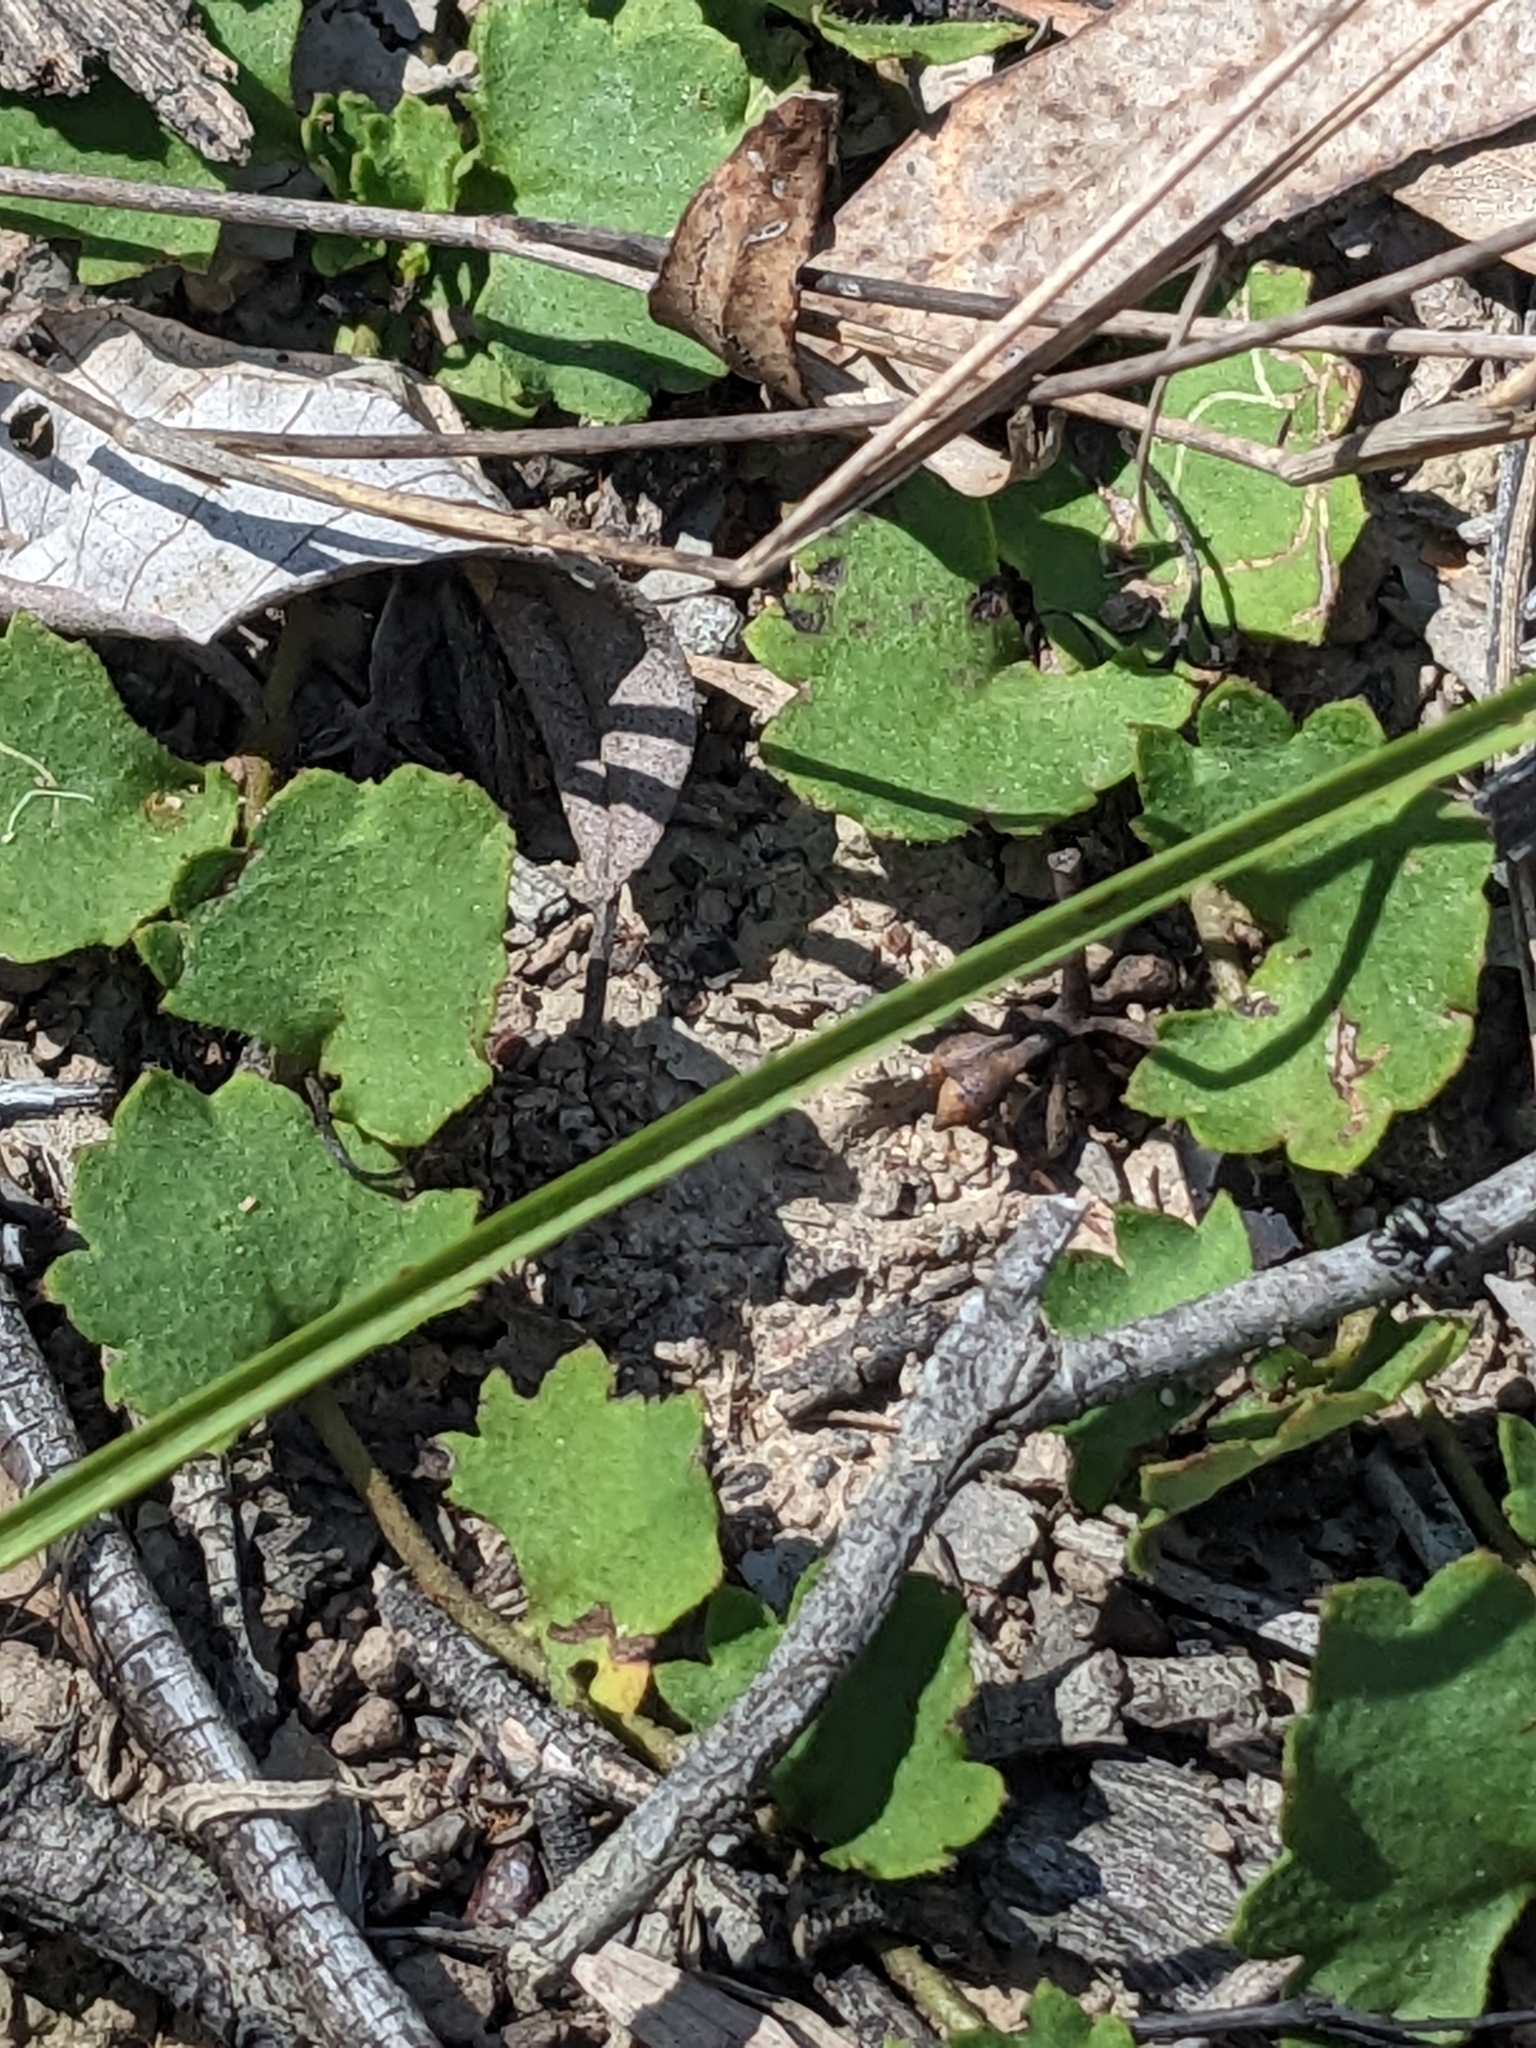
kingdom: Plantae
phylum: Tracheophyta
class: Magnoliopsida
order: Asterales
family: Goodeniaceae
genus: Goodenia
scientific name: Goodenia rotundifolia
